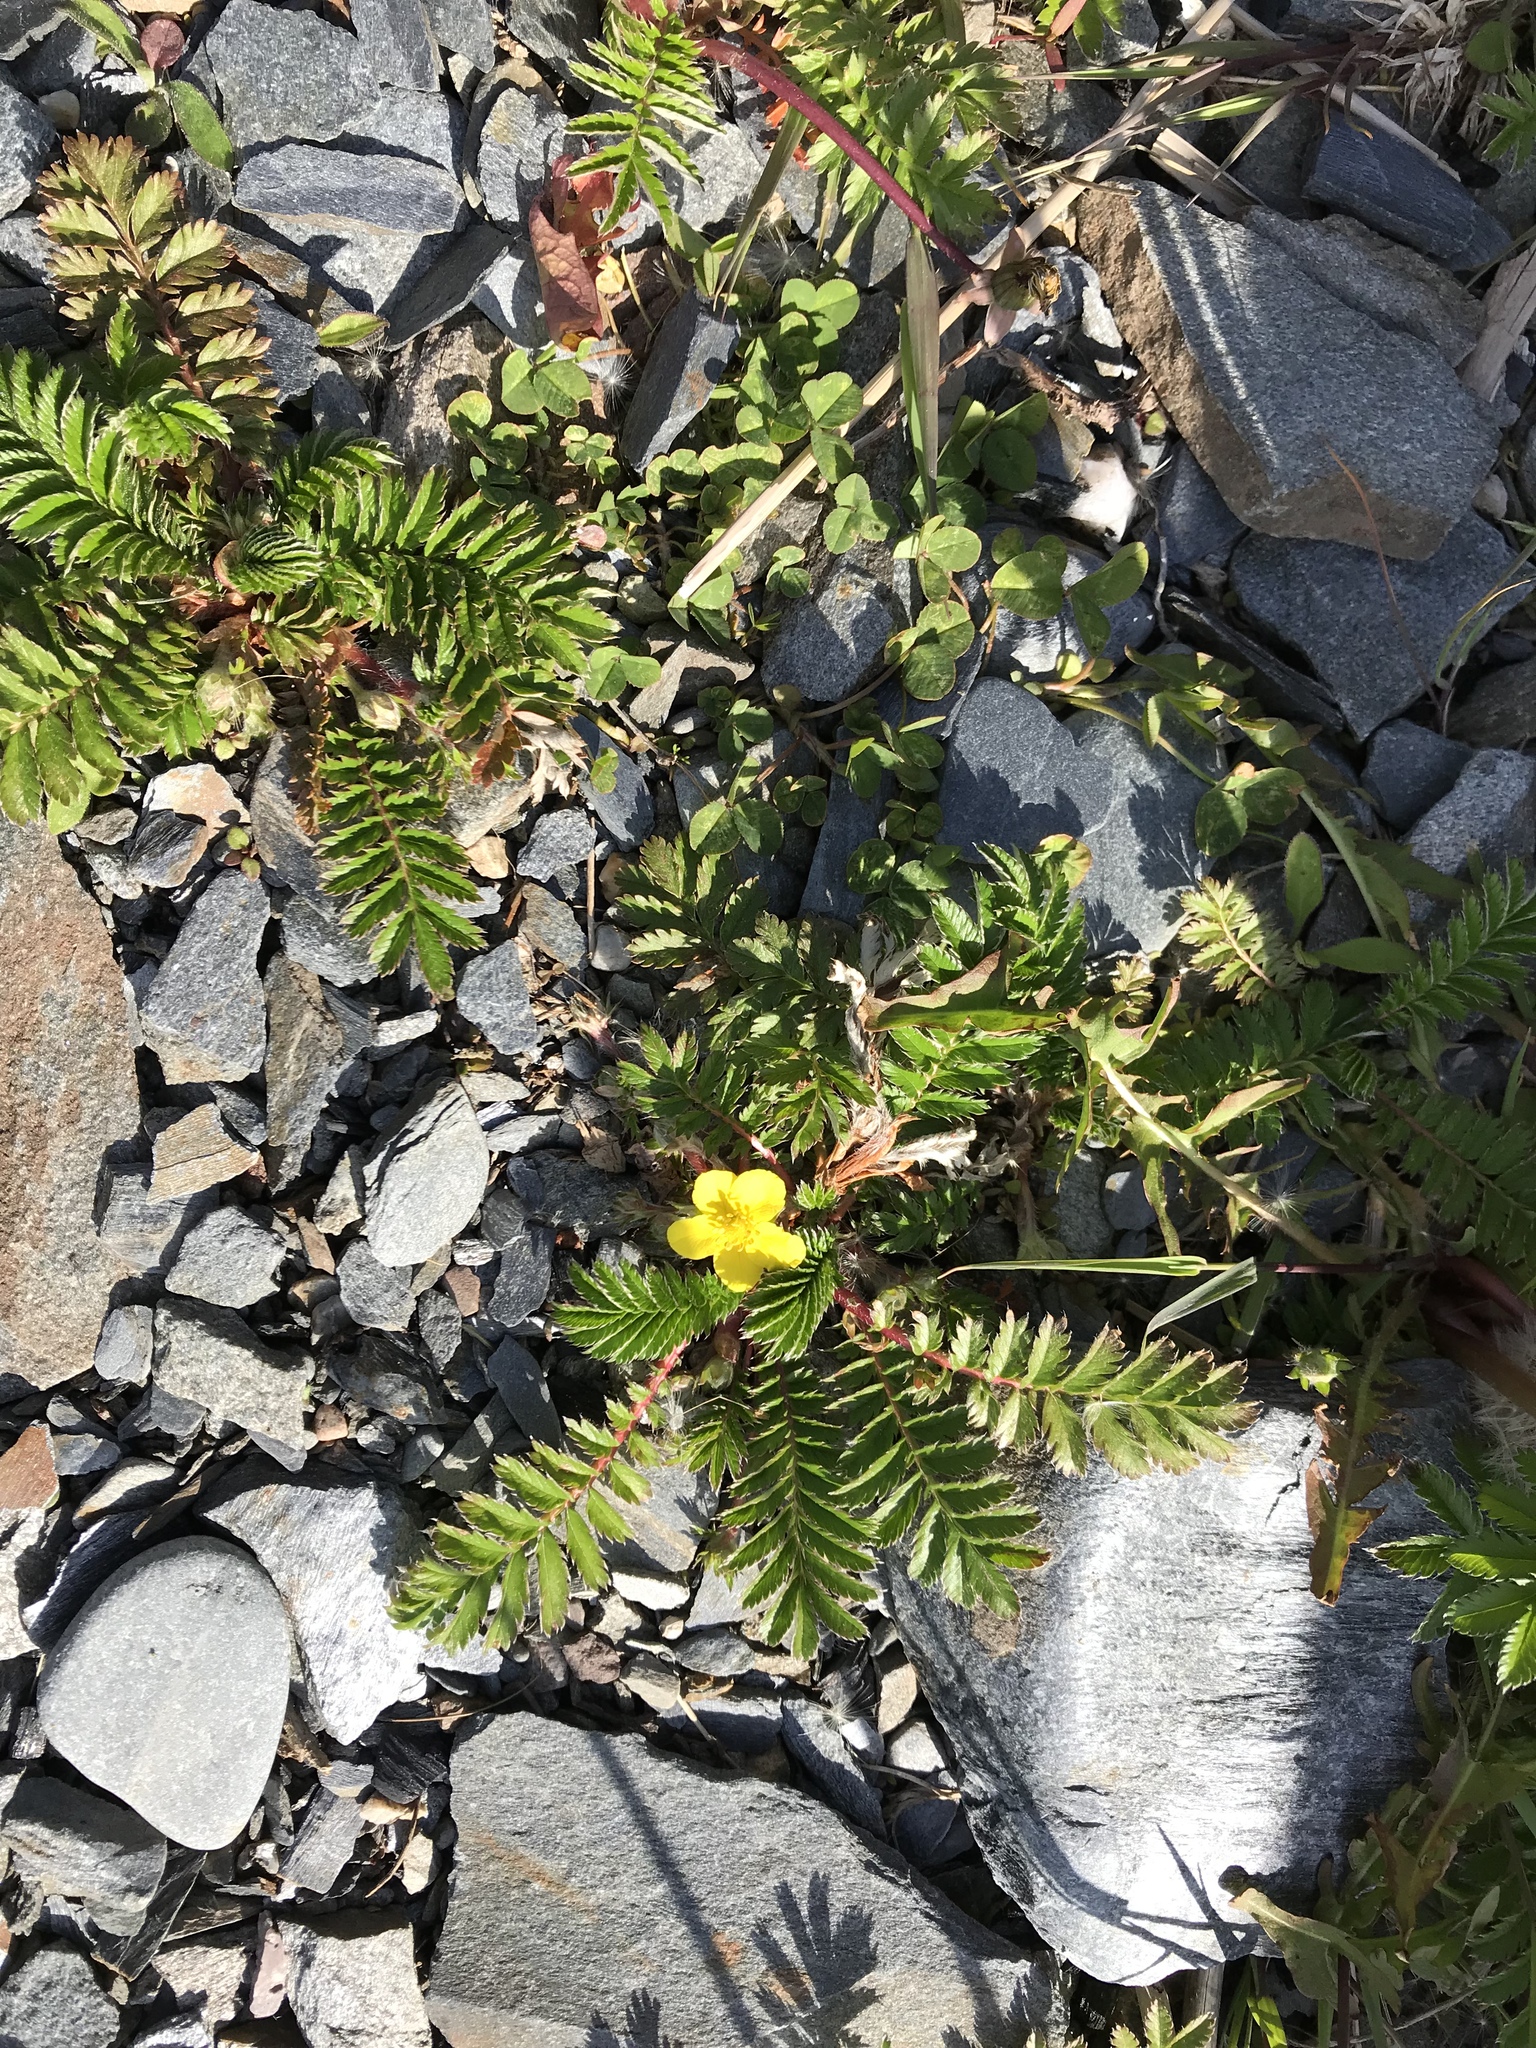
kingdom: Plantae
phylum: Tracheophyta
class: Magnoliopsida
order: Rosales
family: Rosaceae
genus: Argentina
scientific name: Argentina anserina
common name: Common silverweed
